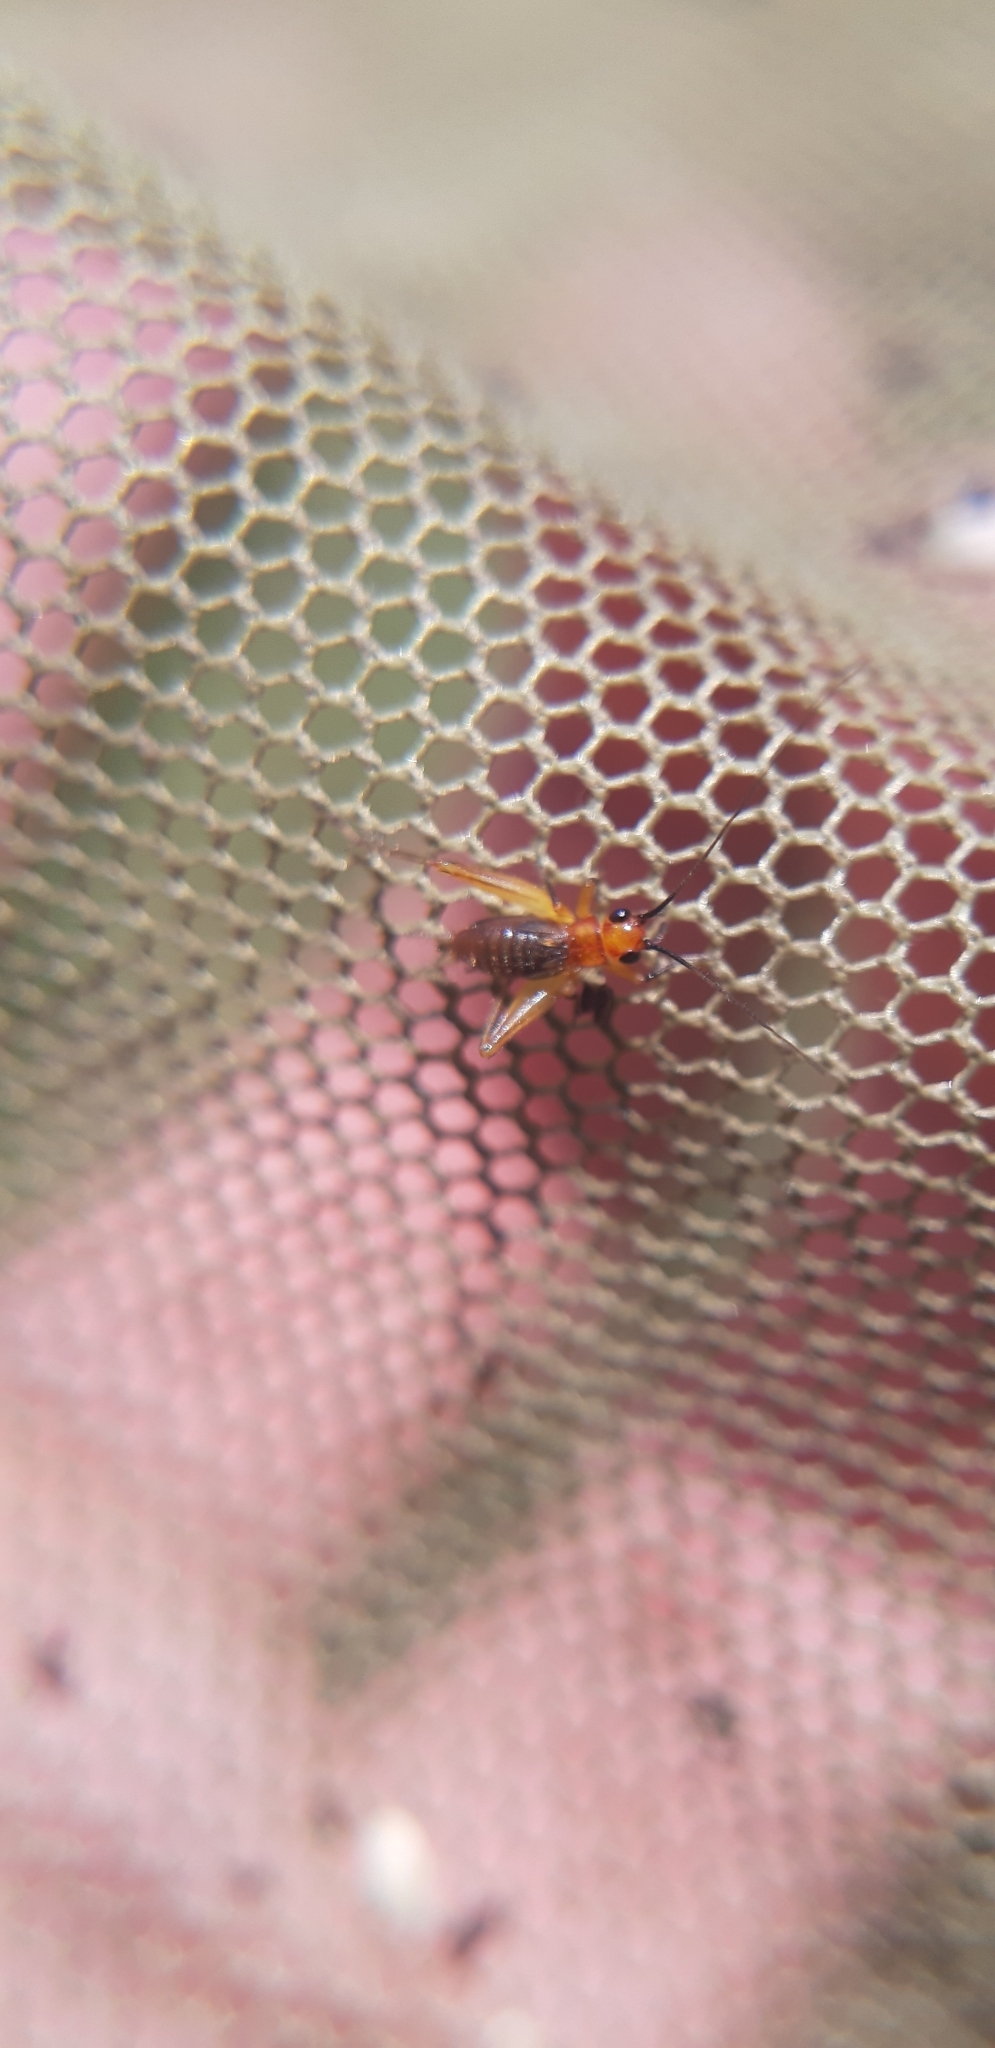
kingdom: Animalia
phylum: Arthropoda
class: Insecta
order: Orthoptera
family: Trigonidiidae
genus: Trigonidium
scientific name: Trigonidium cicindeloides
